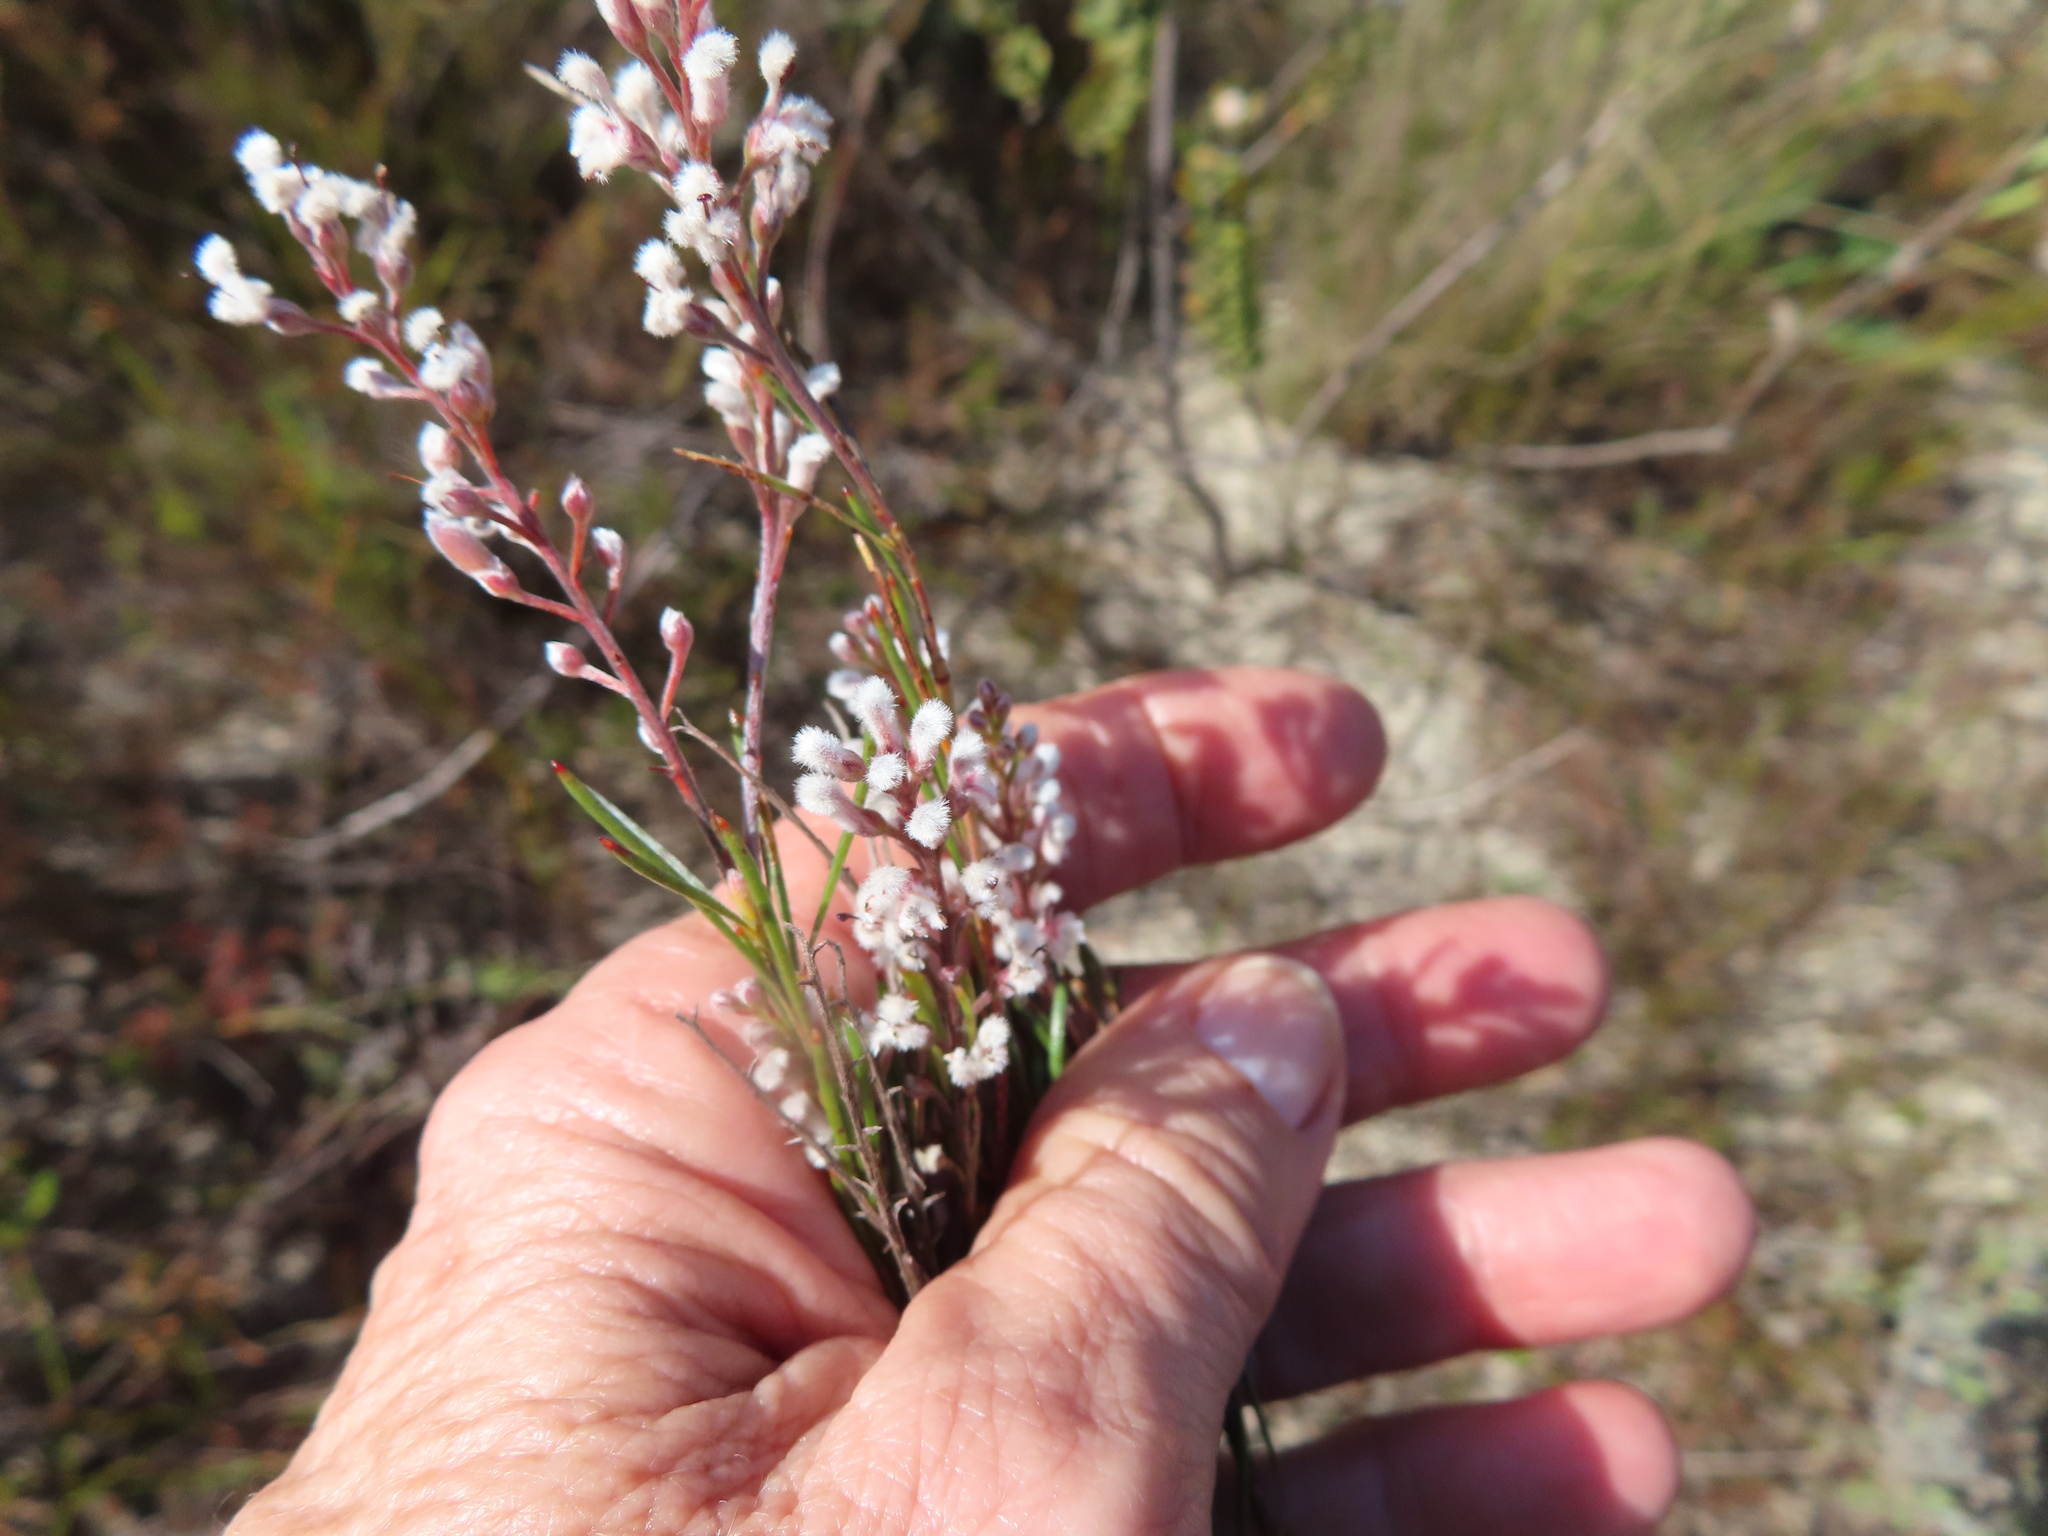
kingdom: Plantae
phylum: Tracheophyta
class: Magnoliopsida
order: Proteales
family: Proteaceae
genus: Spatalla
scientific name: Spatalla racemosa
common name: Lax-stalked spoon
